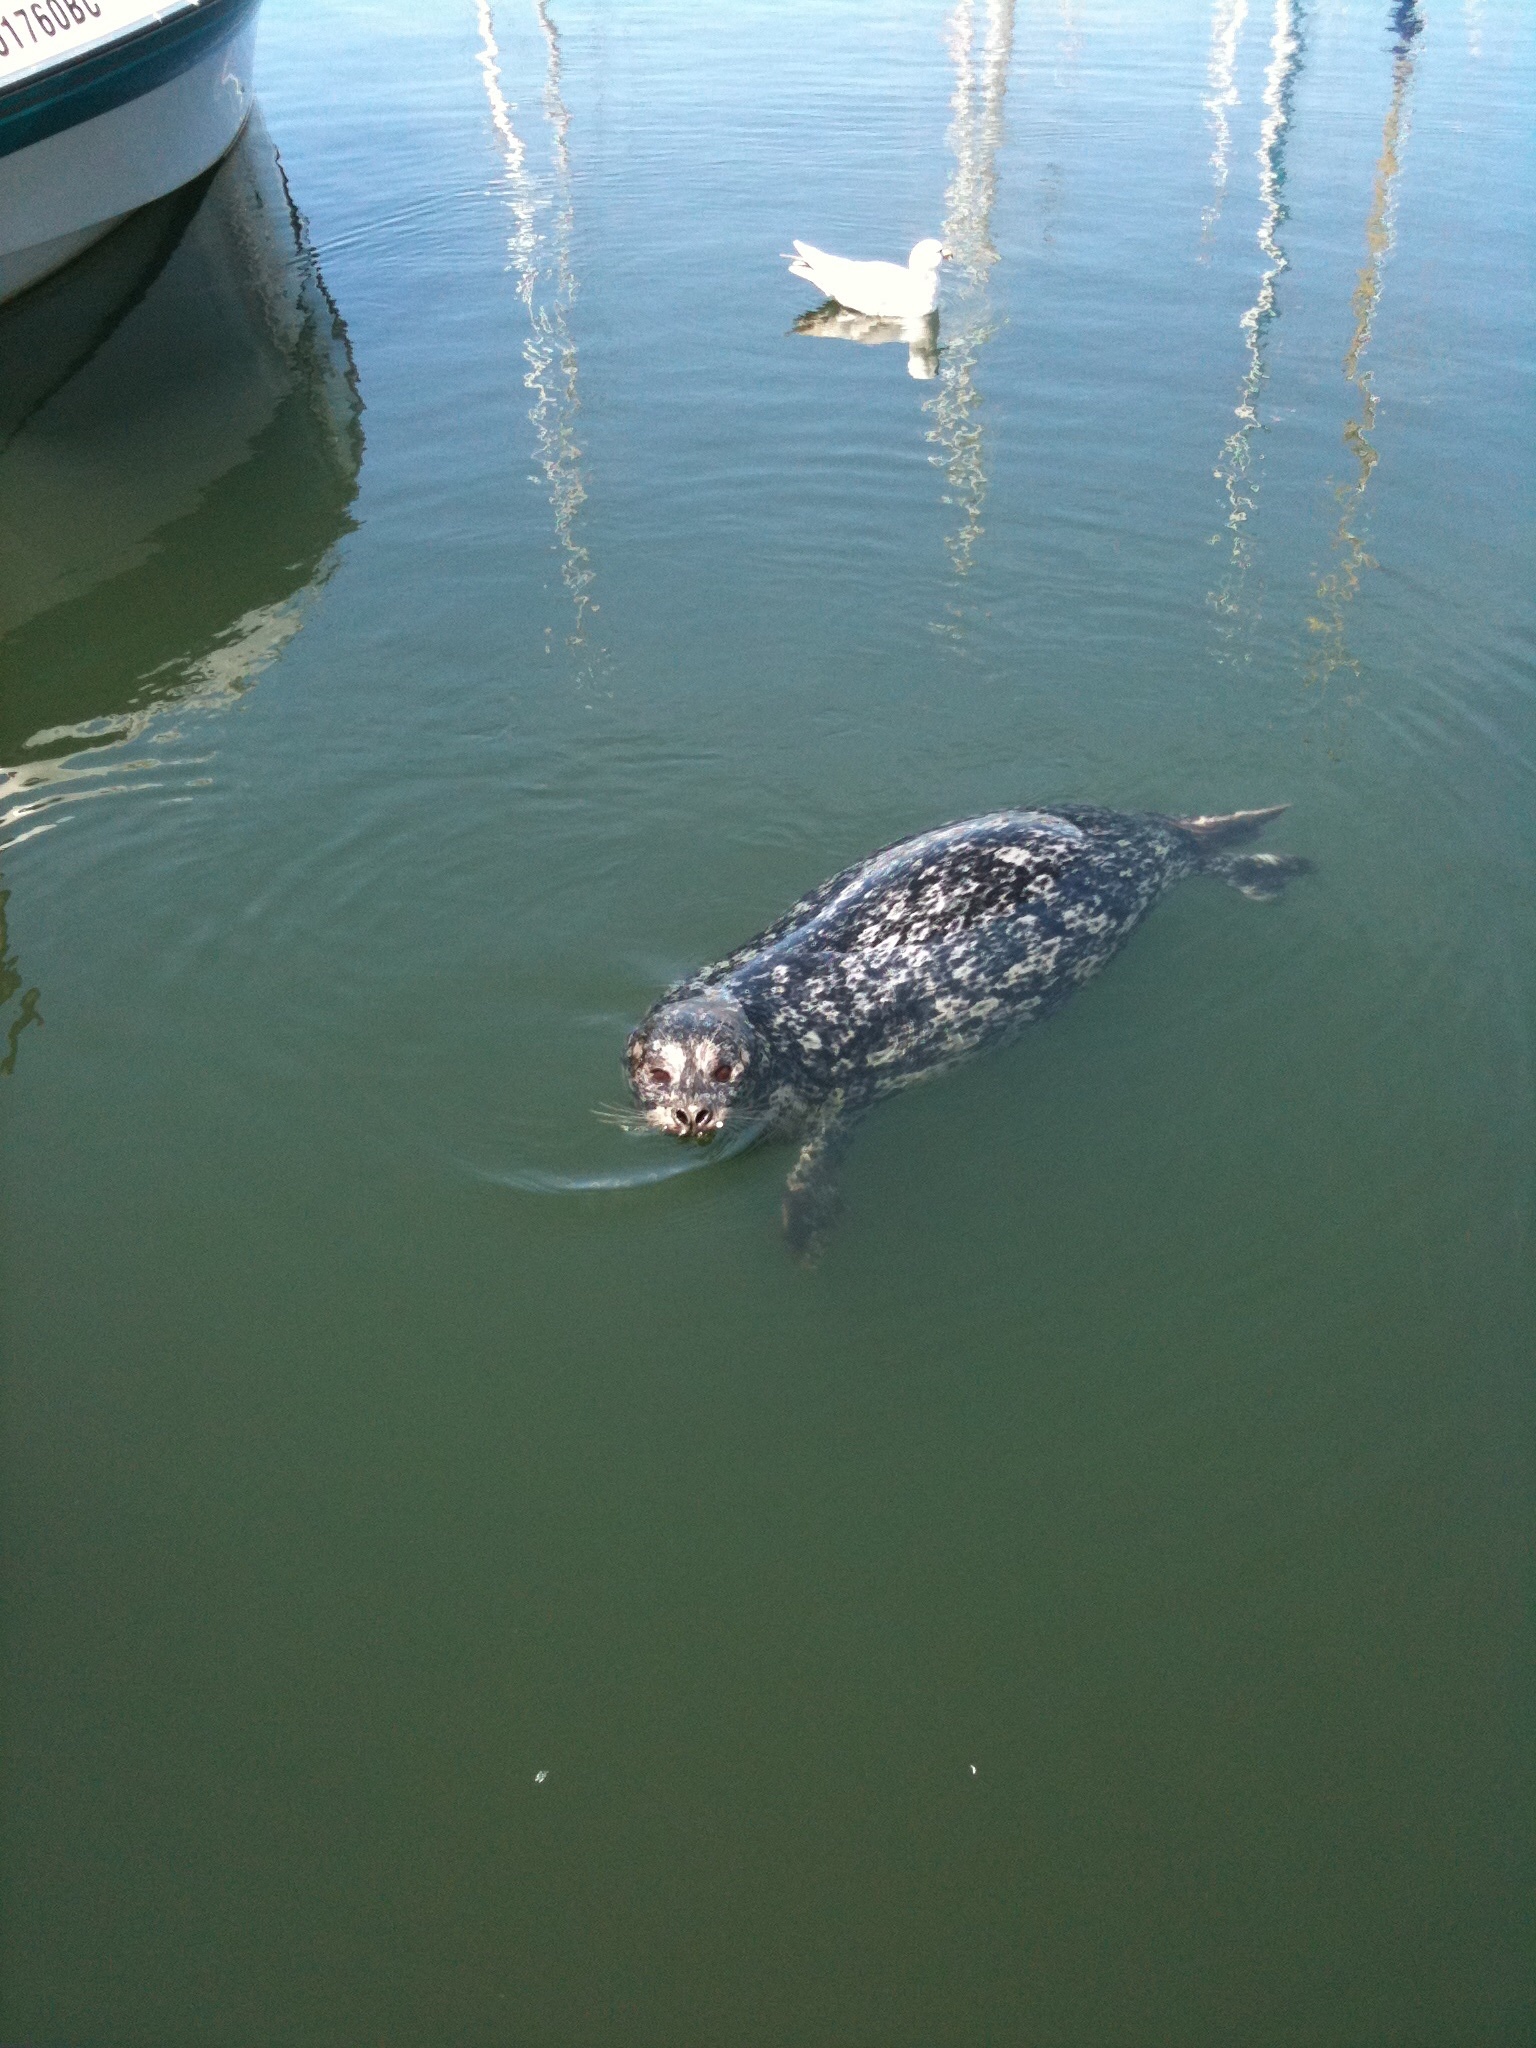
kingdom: Animalia
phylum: Chordata
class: Mammalia
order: Carnivora
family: Phocidae
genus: Phoca
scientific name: Phoca vitulina
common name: Harbor seal
